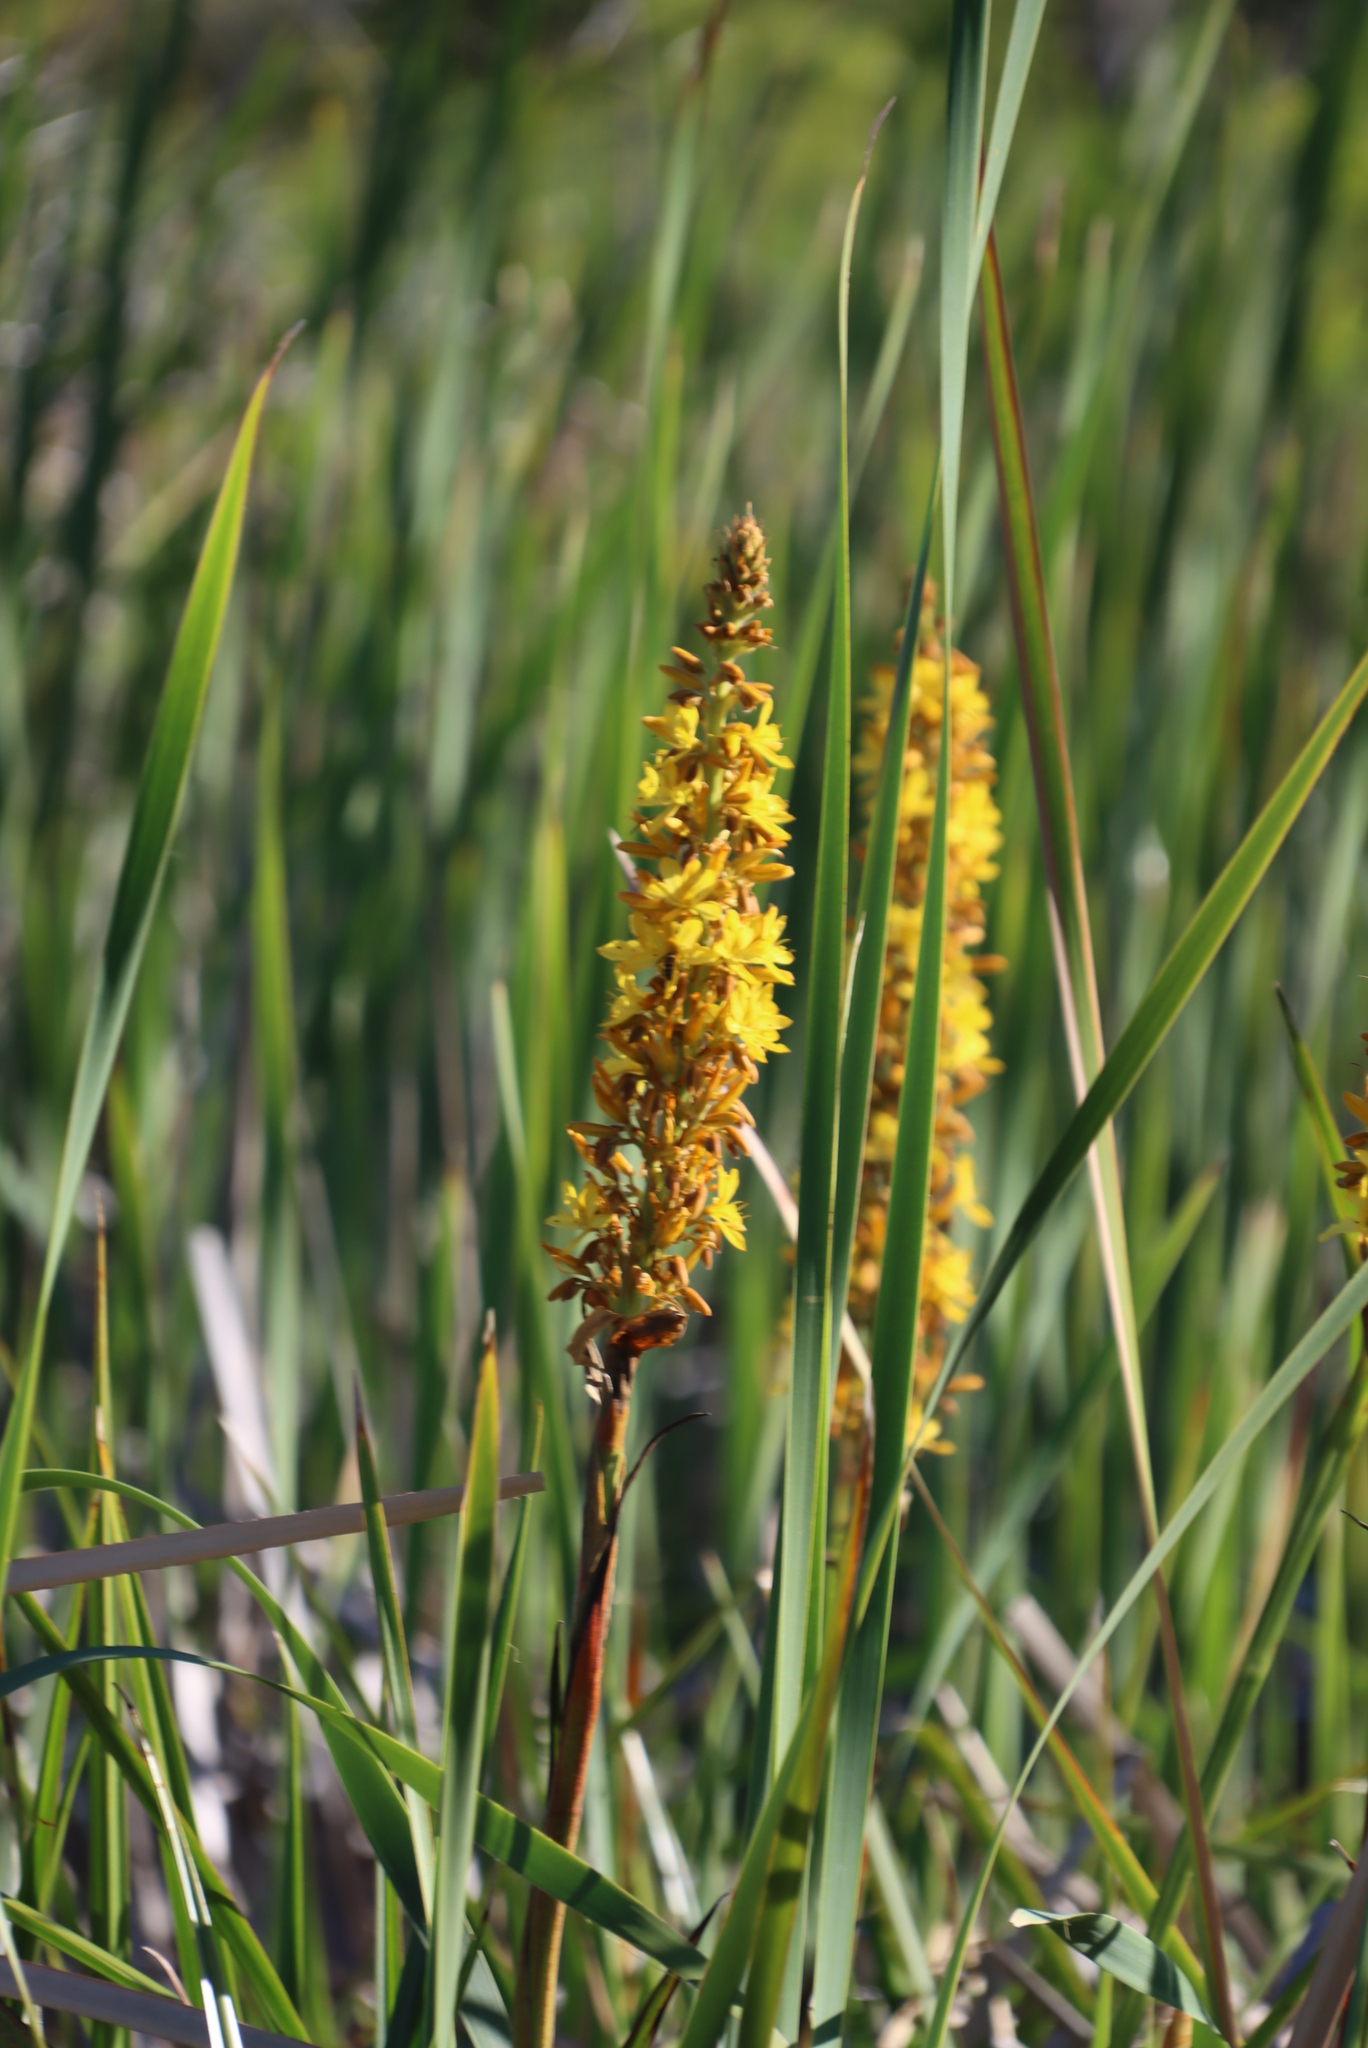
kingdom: Plantae
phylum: Tracheophyta
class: Liliopsida
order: Commelinales
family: Haemodoraceae
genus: Wachendorfia
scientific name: Wachendorfia thyrsiflora
